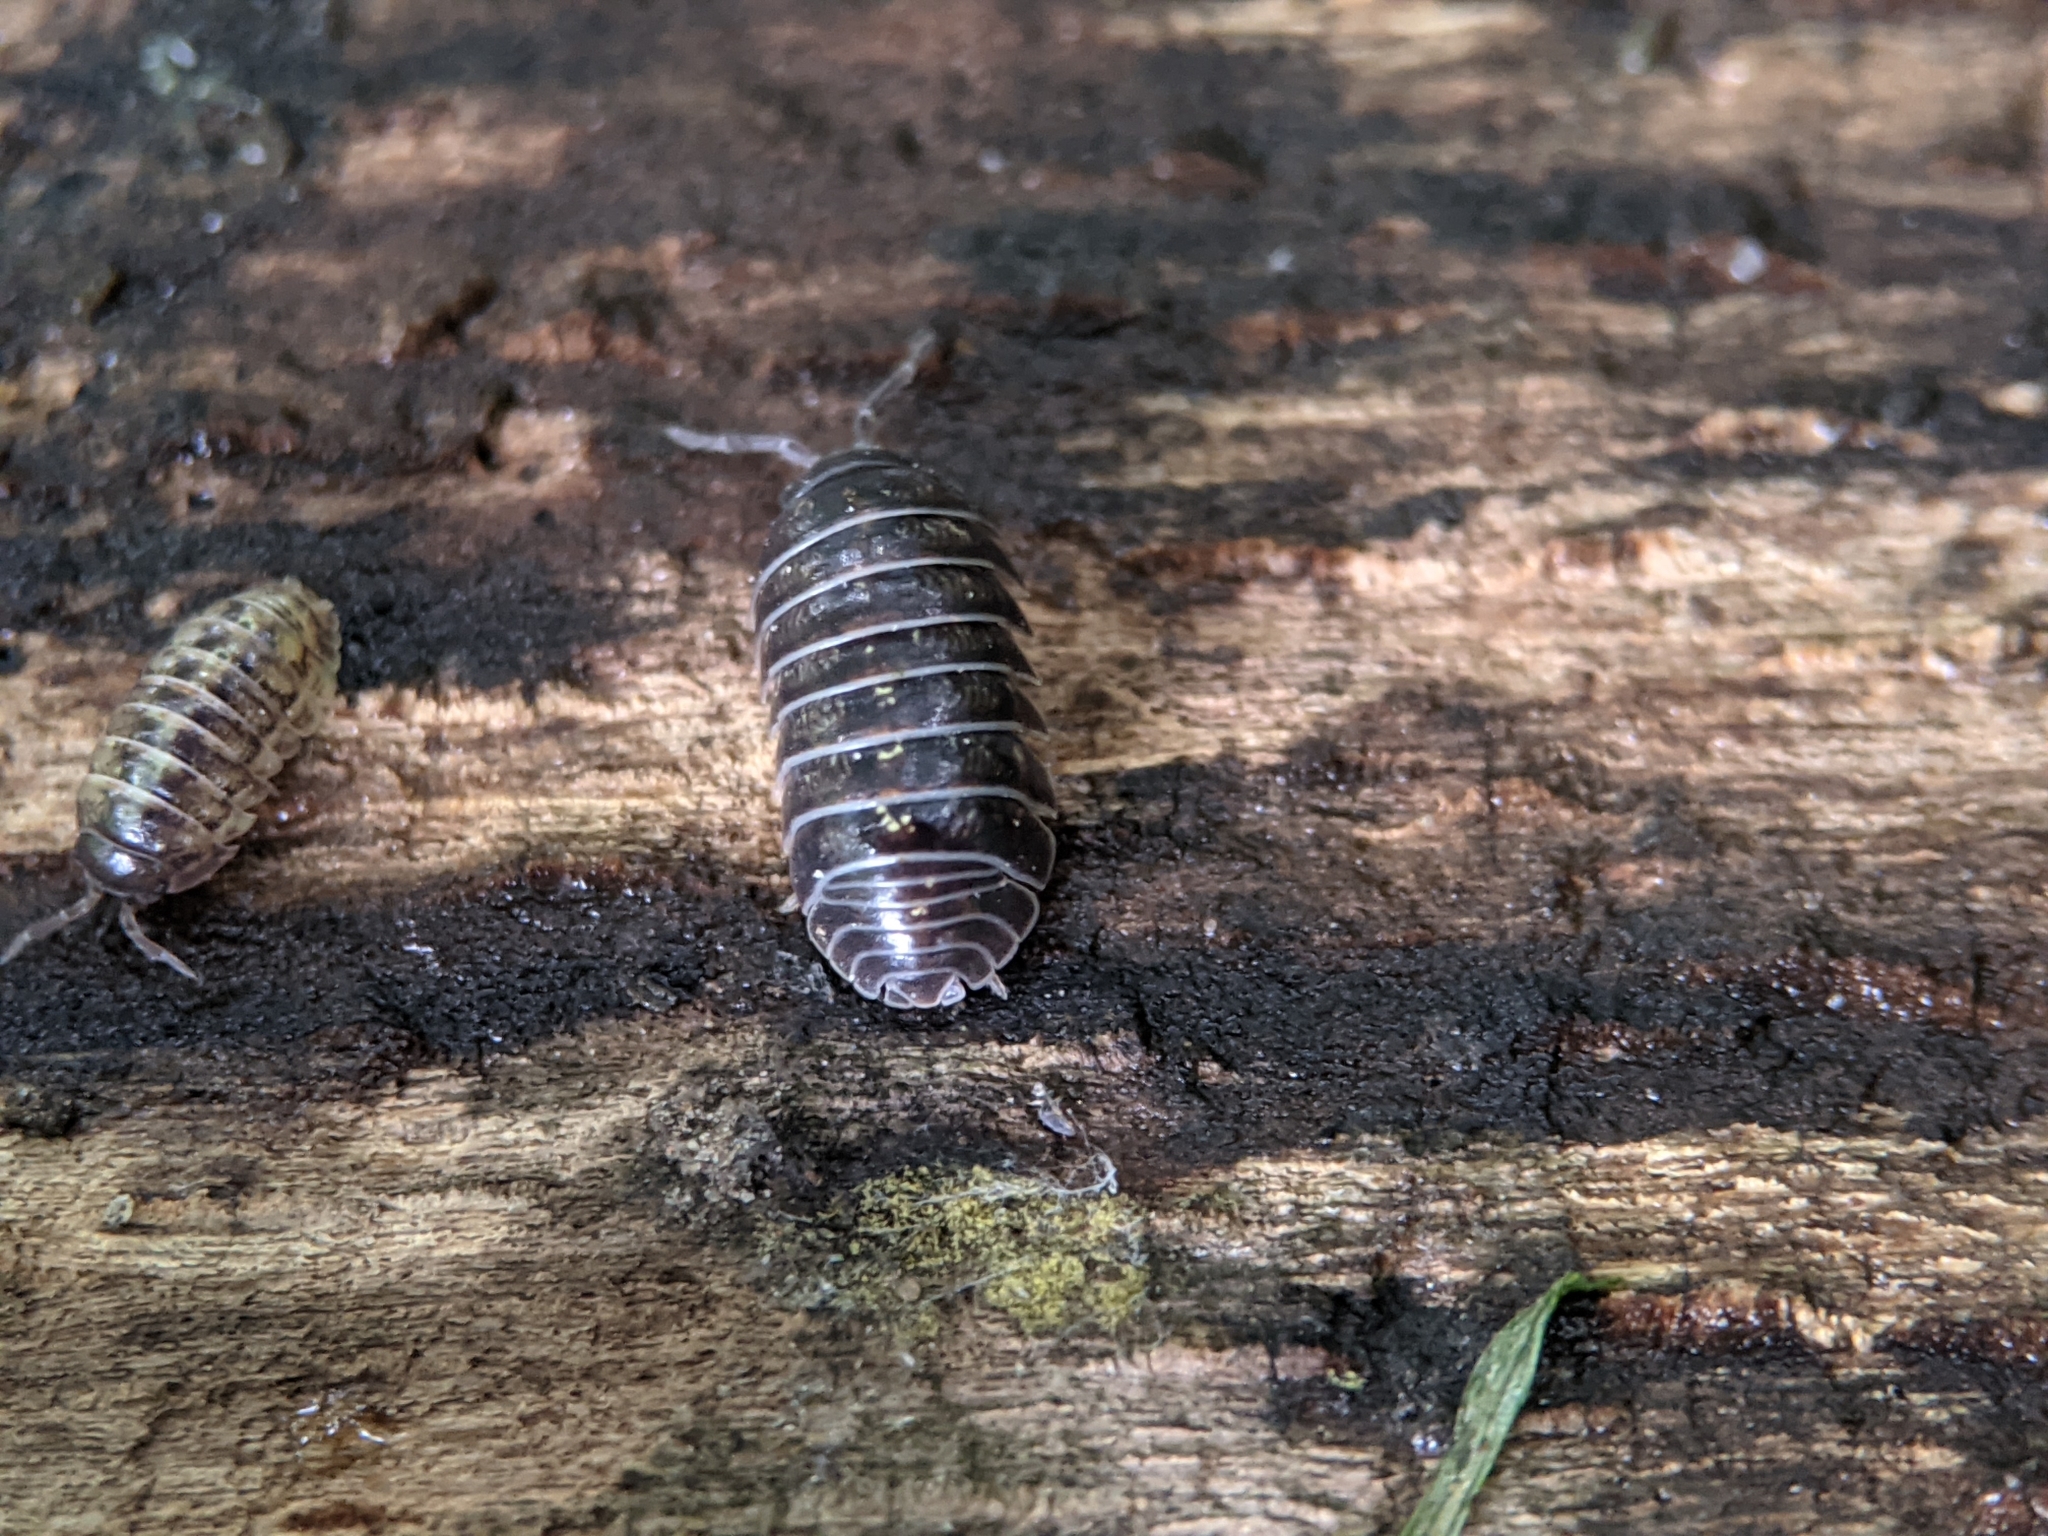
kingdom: Animalia
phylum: Arthropoda
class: Malacostraca
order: Isopoda
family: Armadillidiidae
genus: Armadillidium
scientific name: Armadillidium vulgare
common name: Common pill woodlouse
